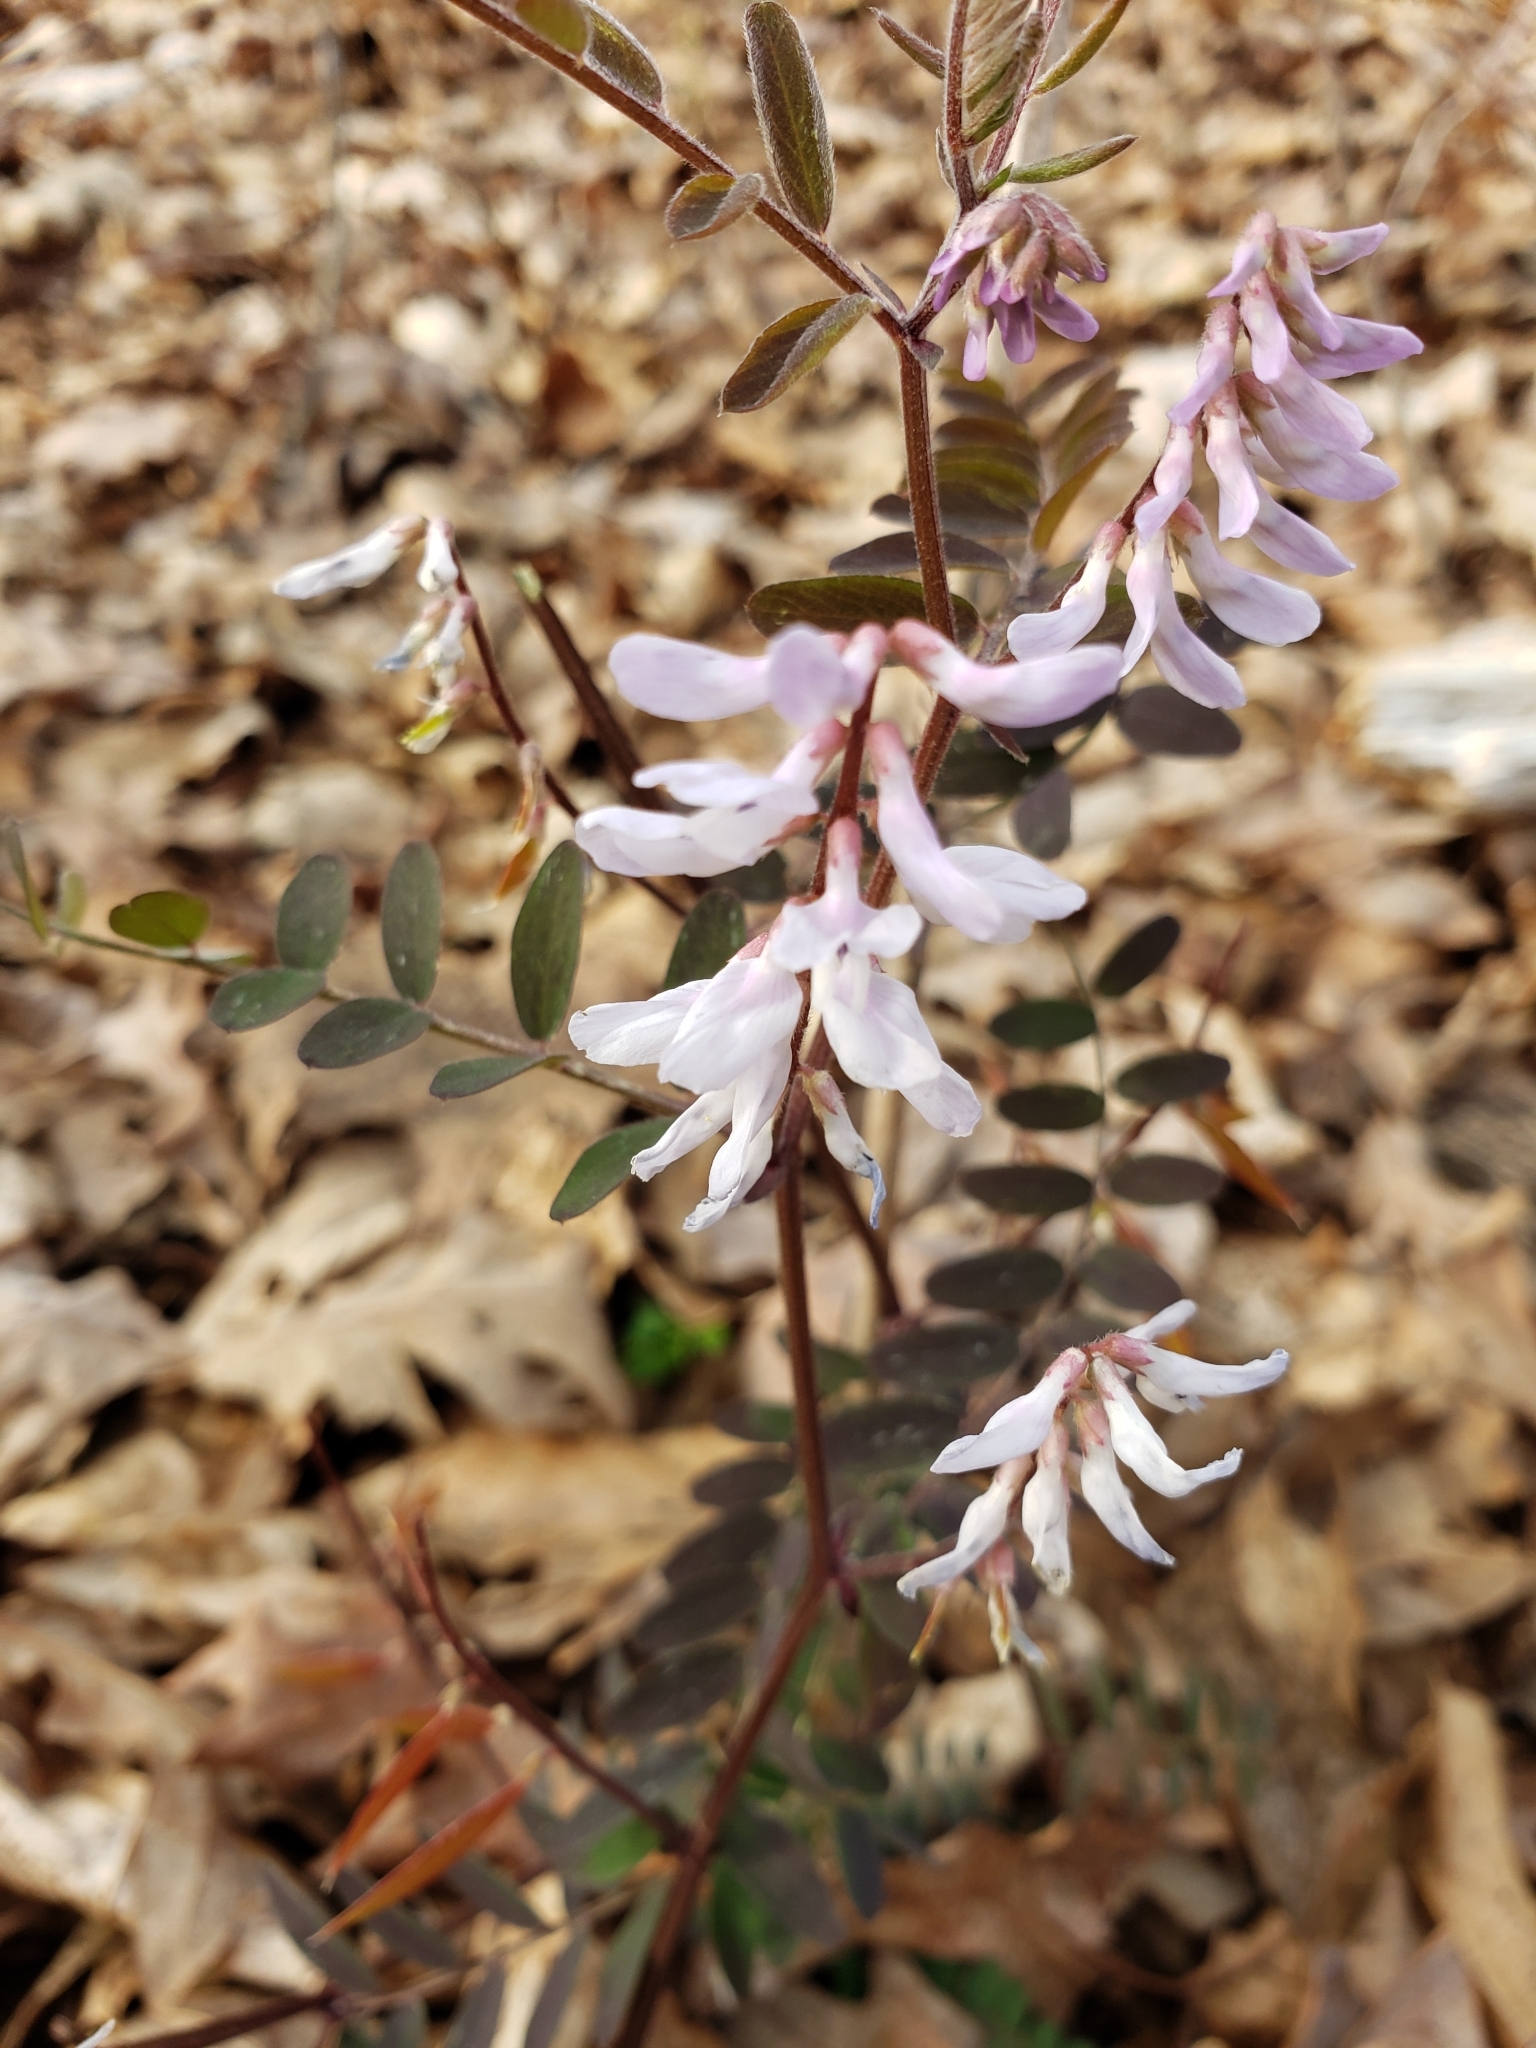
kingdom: Plantae
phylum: Tracheophyta
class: Magnoliopsida
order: Fabales
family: Fabaceae
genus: Vicia
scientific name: Vicia caroliniana
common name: Carolina vetch
